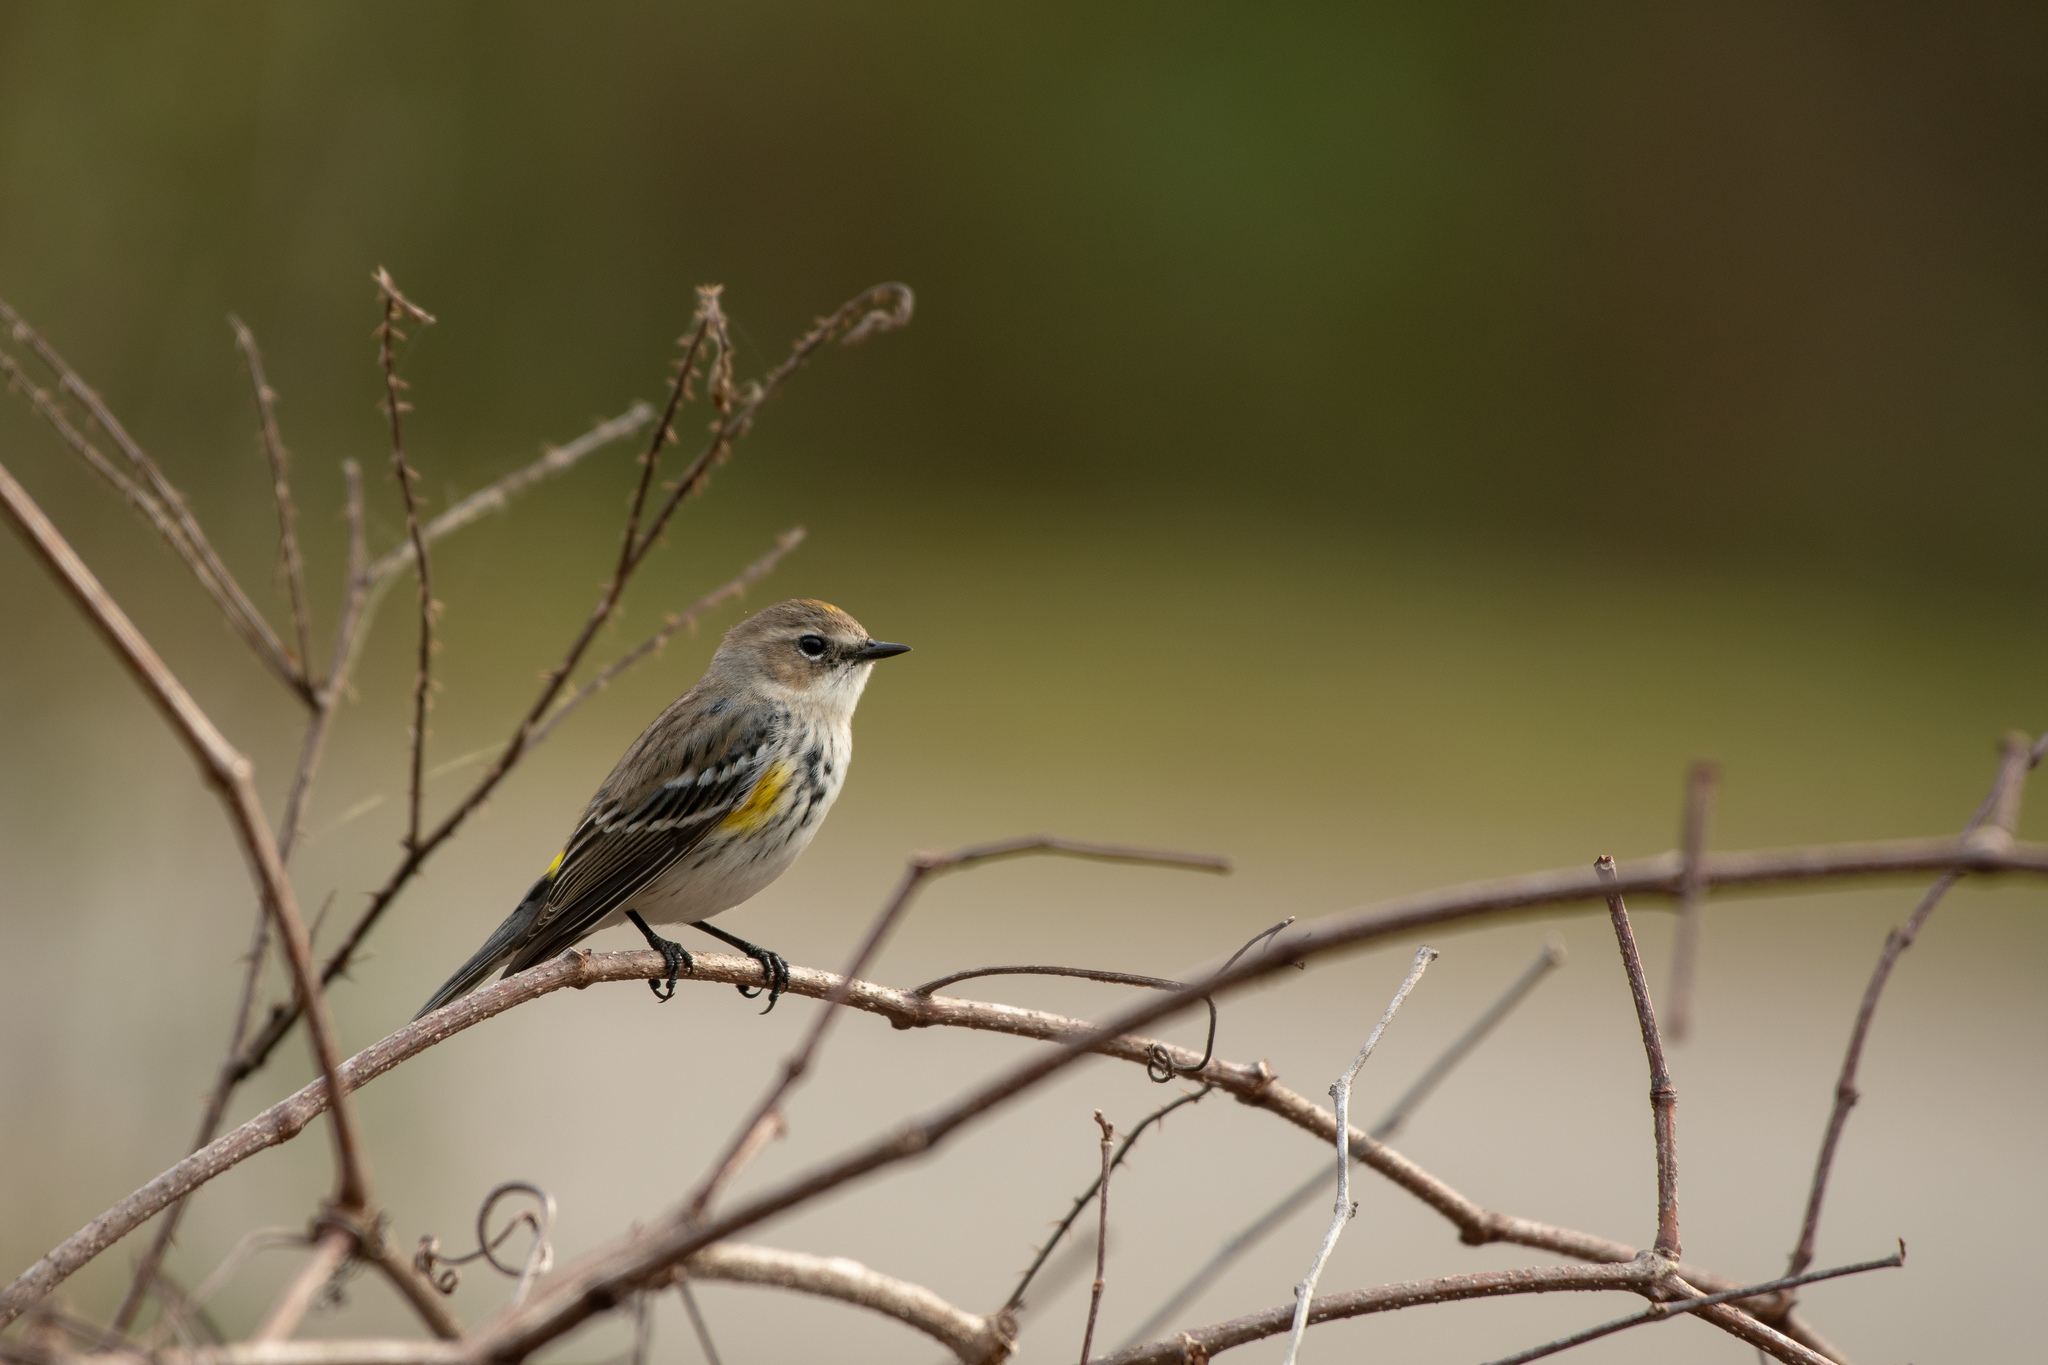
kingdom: Animalia
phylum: Chordata
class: Aves
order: Passeriformes
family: Parulidae
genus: Setophaga
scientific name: Setophaga coronata
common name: Myrtle warbler
